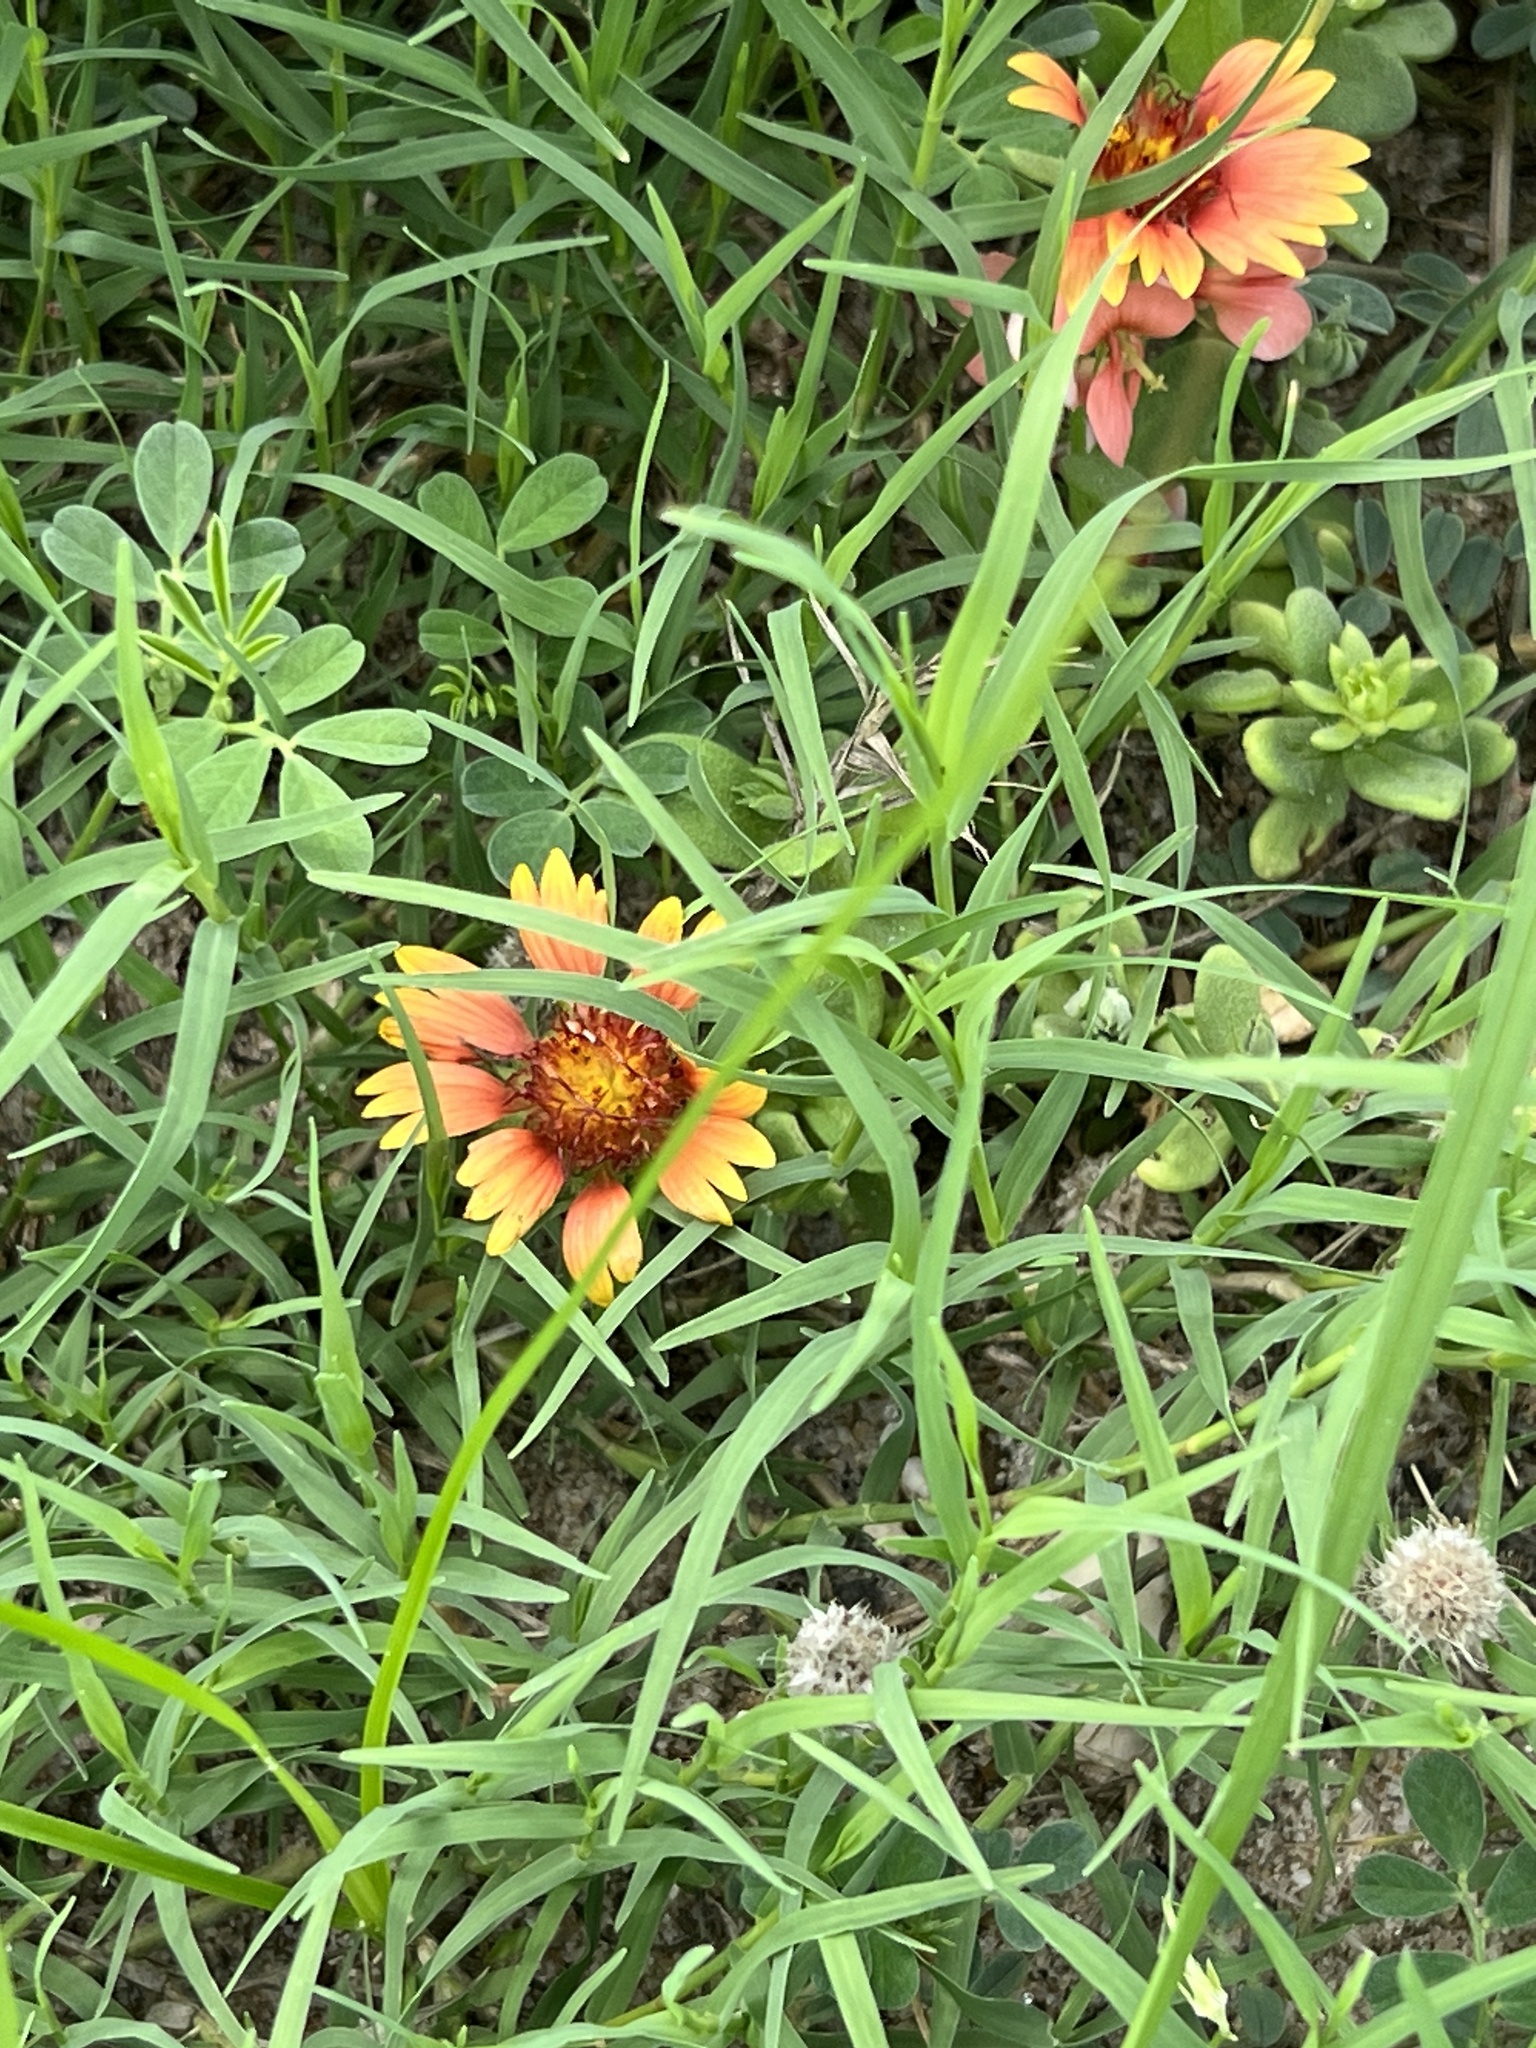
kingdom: Plantae
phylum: Tracheophyta
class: Magnoliopsida
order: Asterales
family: Asteraceae
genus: Gaillardia
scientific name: Gaillardia pulchella
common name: Firewheel
